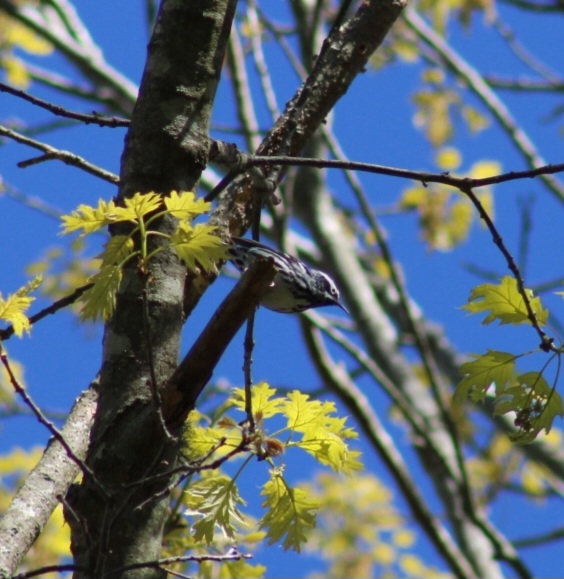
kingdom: Animalia
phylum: Chordata
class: Aves
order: Passeriformes
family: Parulidae
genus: Mniotilta
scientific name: Mniotilta varia
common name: Black-and-white warbler
